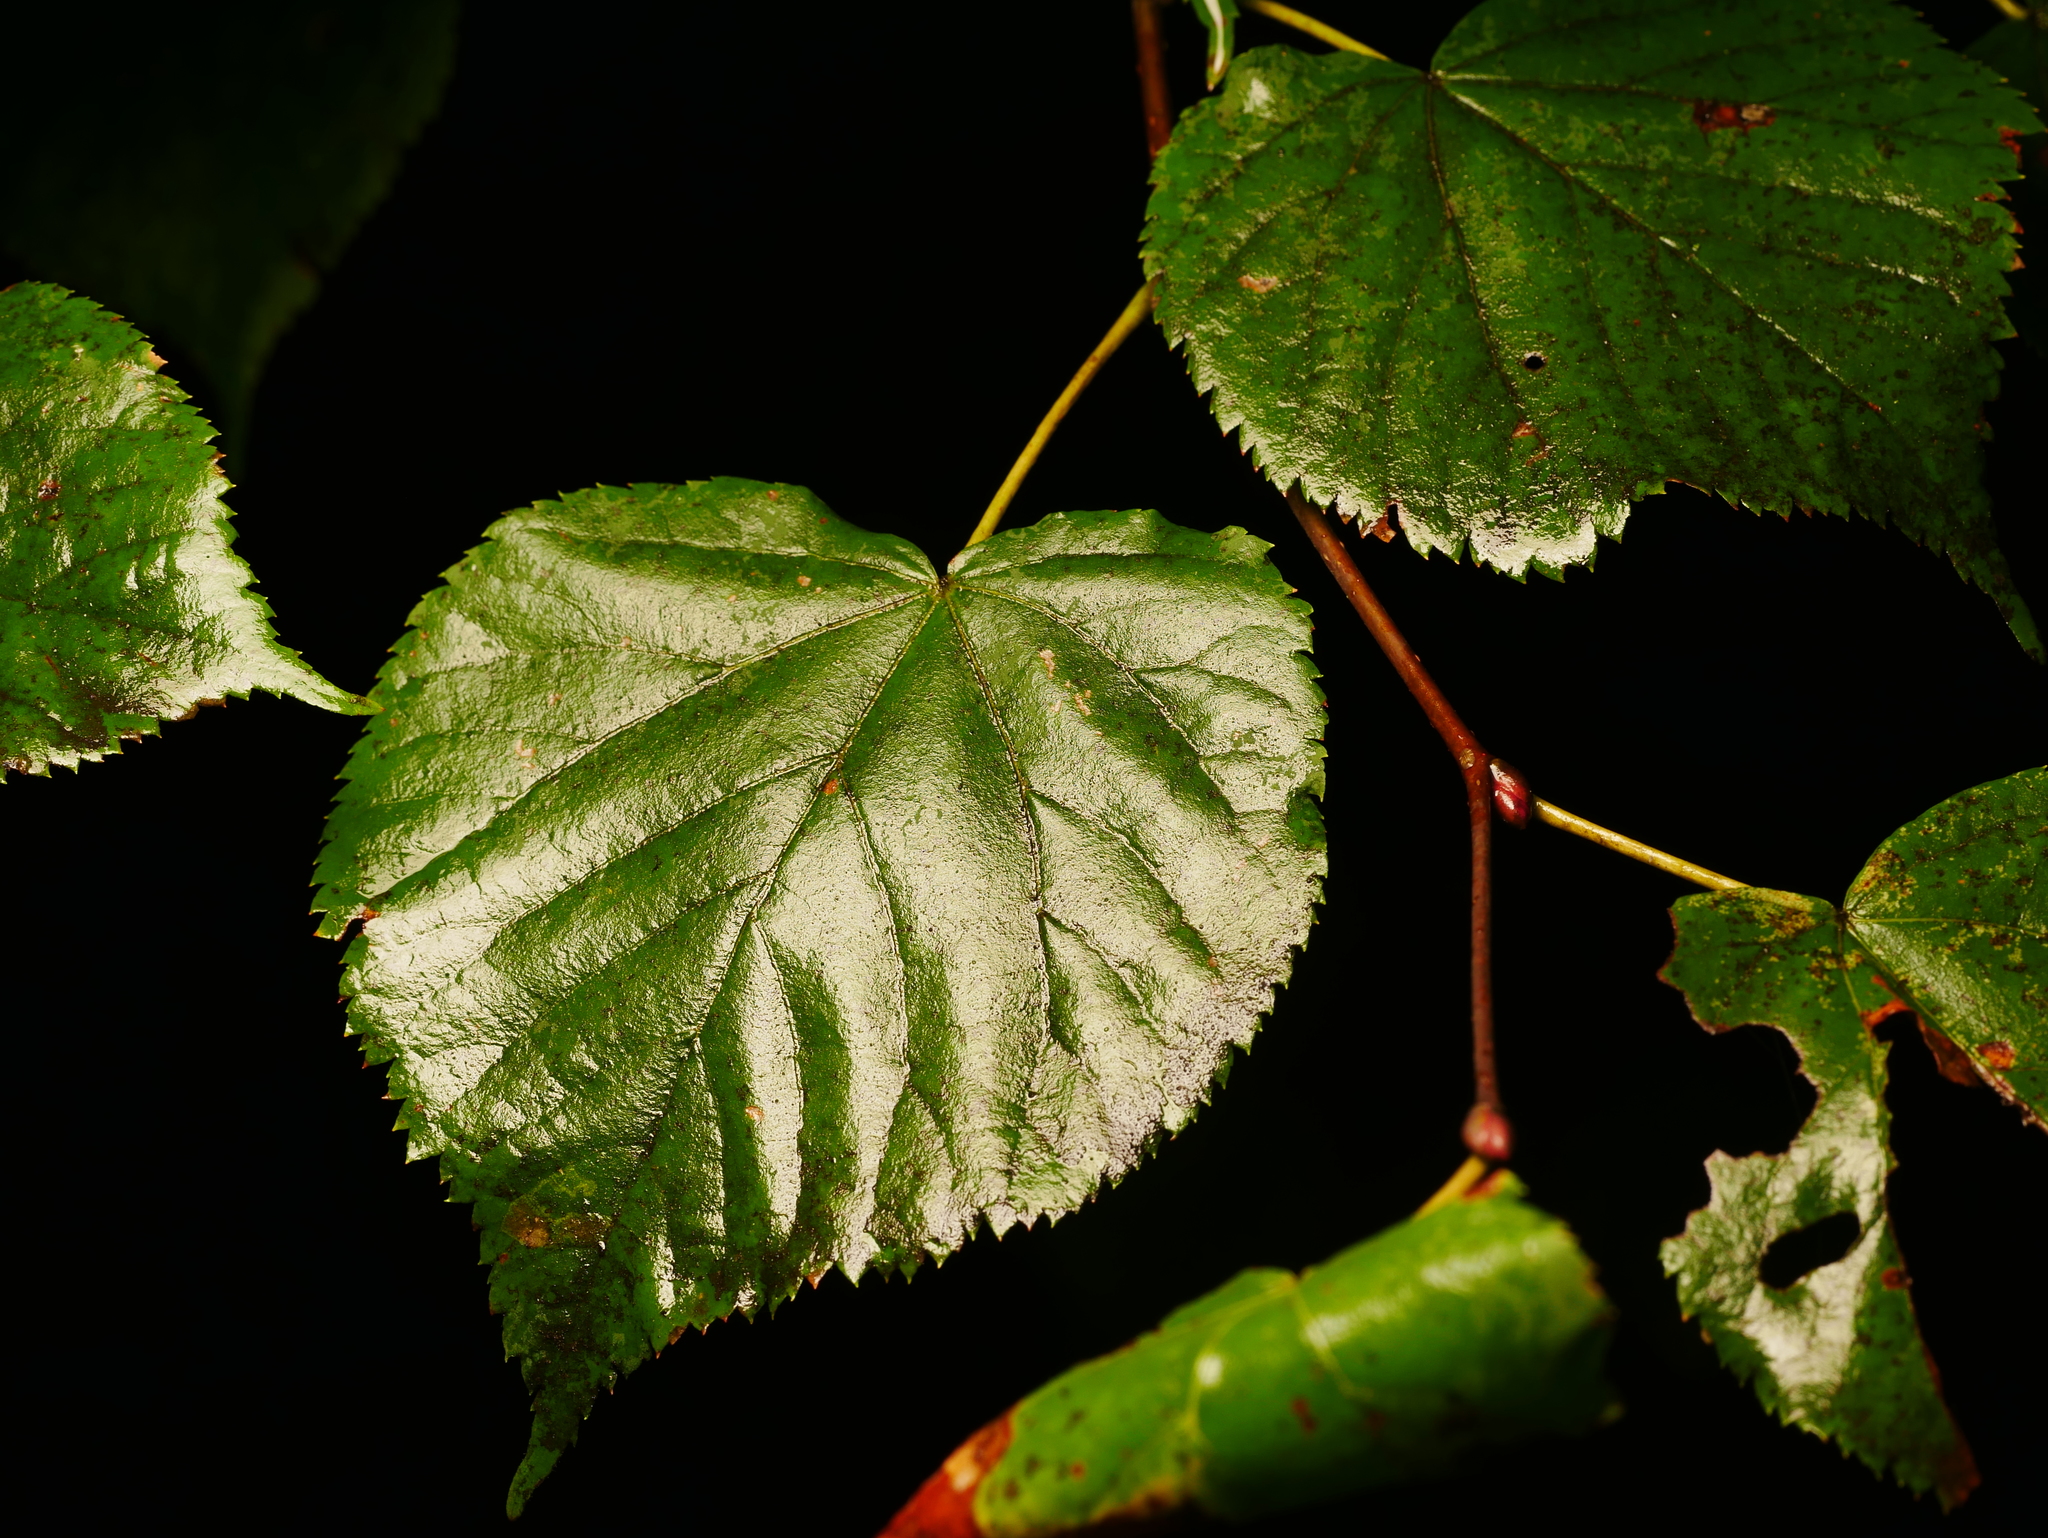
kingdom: Plantae
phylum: Tracheophyta
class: Magnoliopsida
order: Malvales
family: Malvaceae
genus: Tilia
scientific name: Tilia cordata
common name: Small-leaved lime
